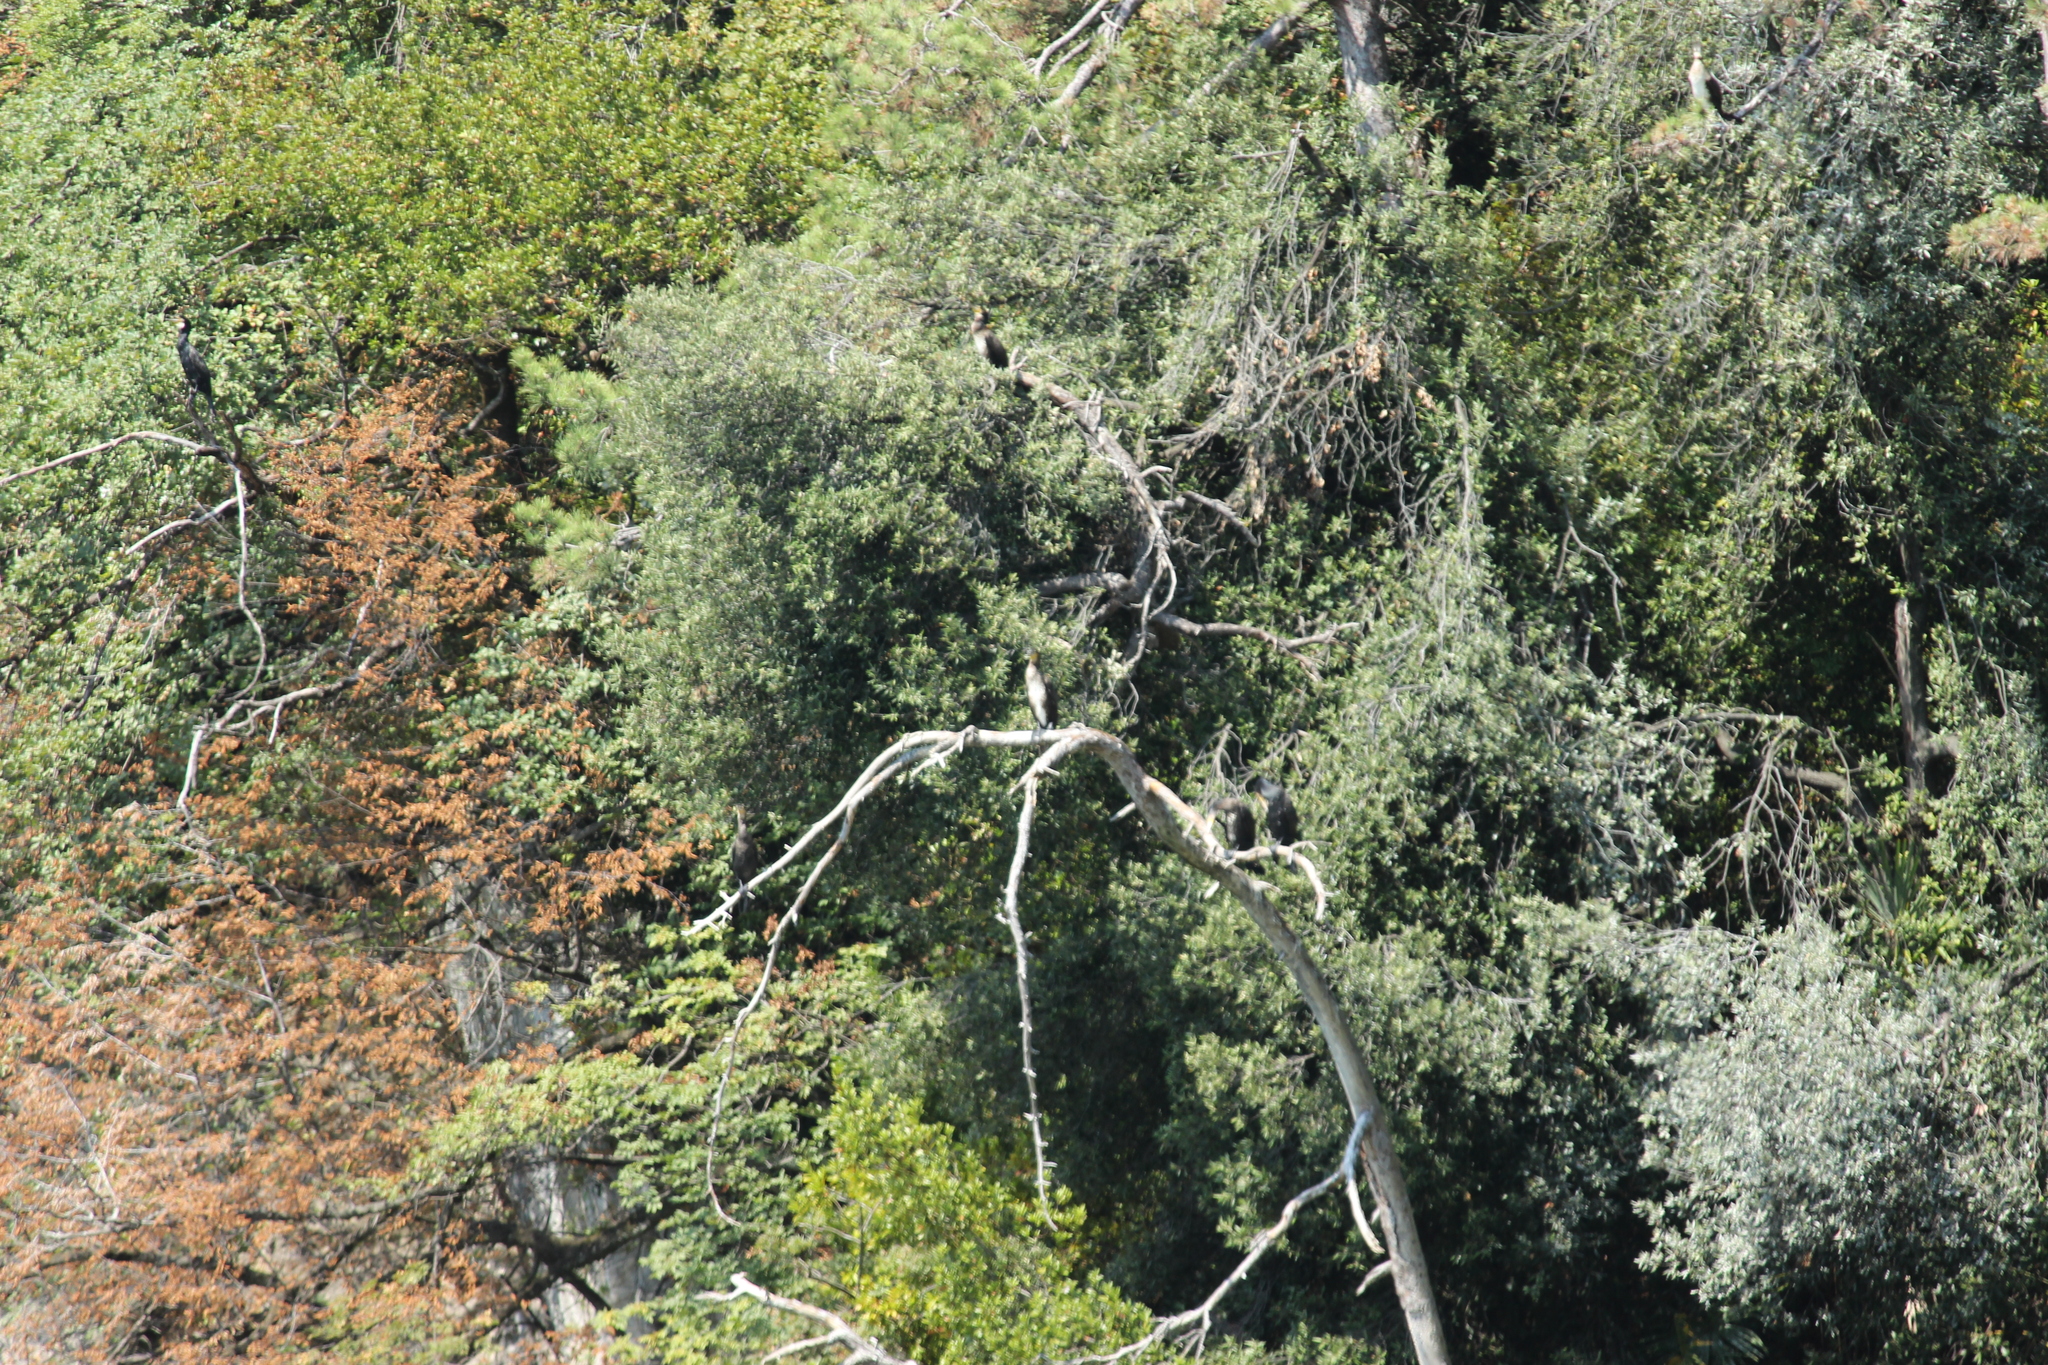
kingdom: Animalia
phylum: Chordata
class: Aves
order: Suliformes
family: Phalacrocoracidae
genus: Phalacrocorax
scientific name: Phalacrocorax carbo
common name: Great cormorant
